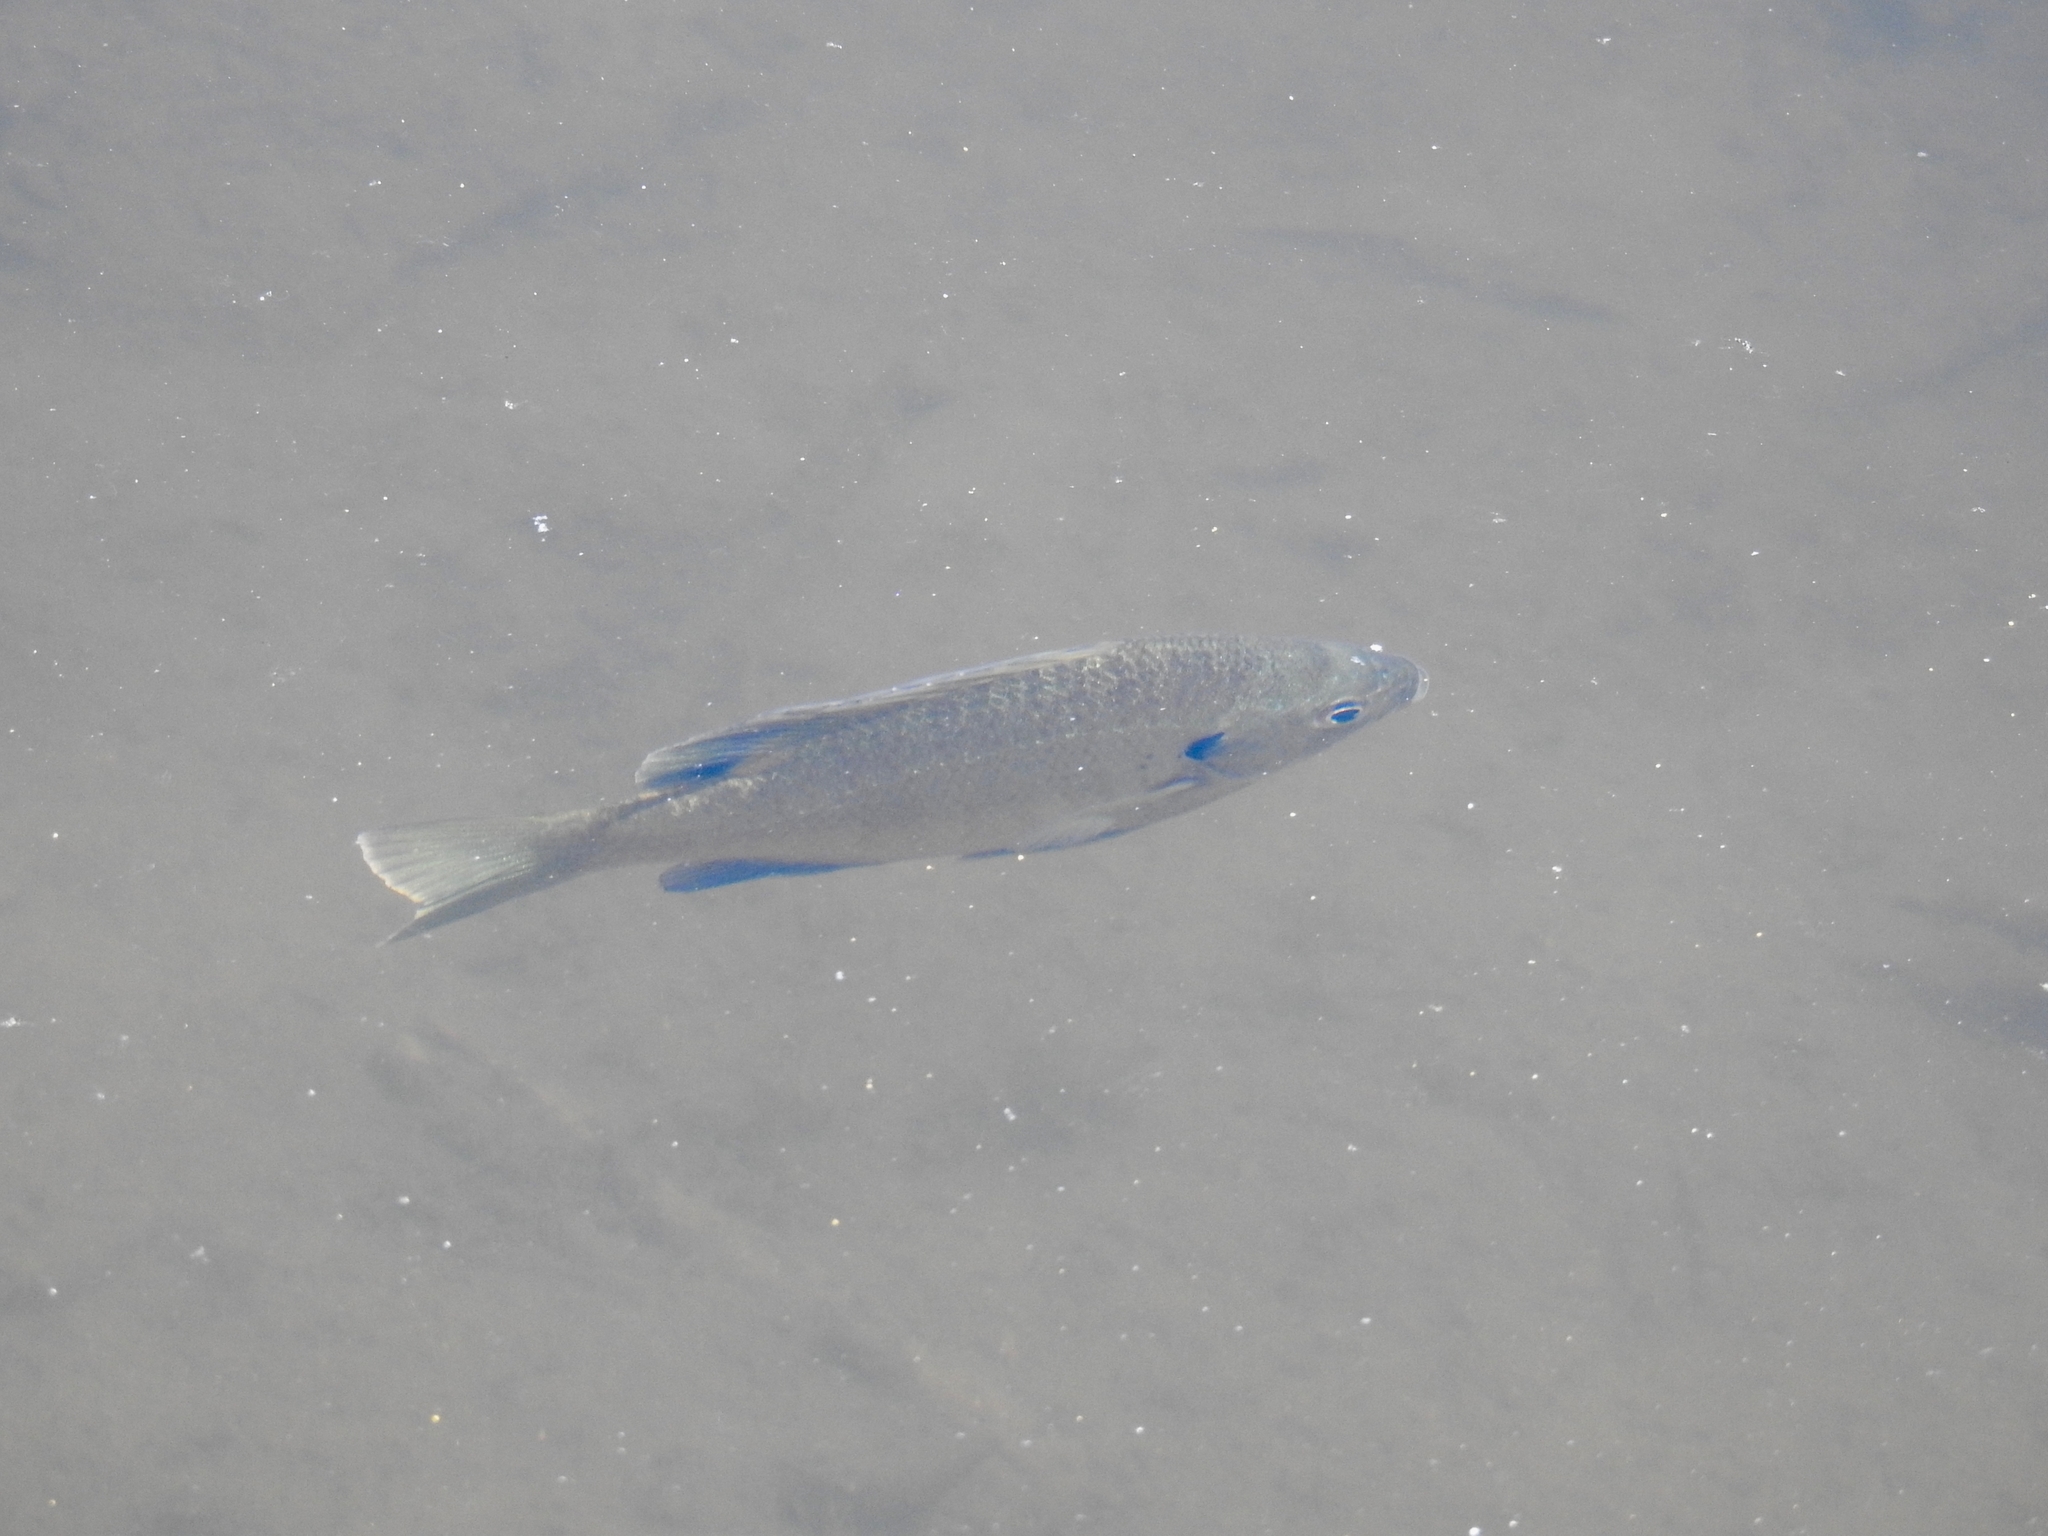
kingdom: Animalia
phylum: Chordata
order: Perciformes
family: Centrarchidae
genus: Lepomis
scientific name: Lepomis macrochirus
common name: Bluegill
